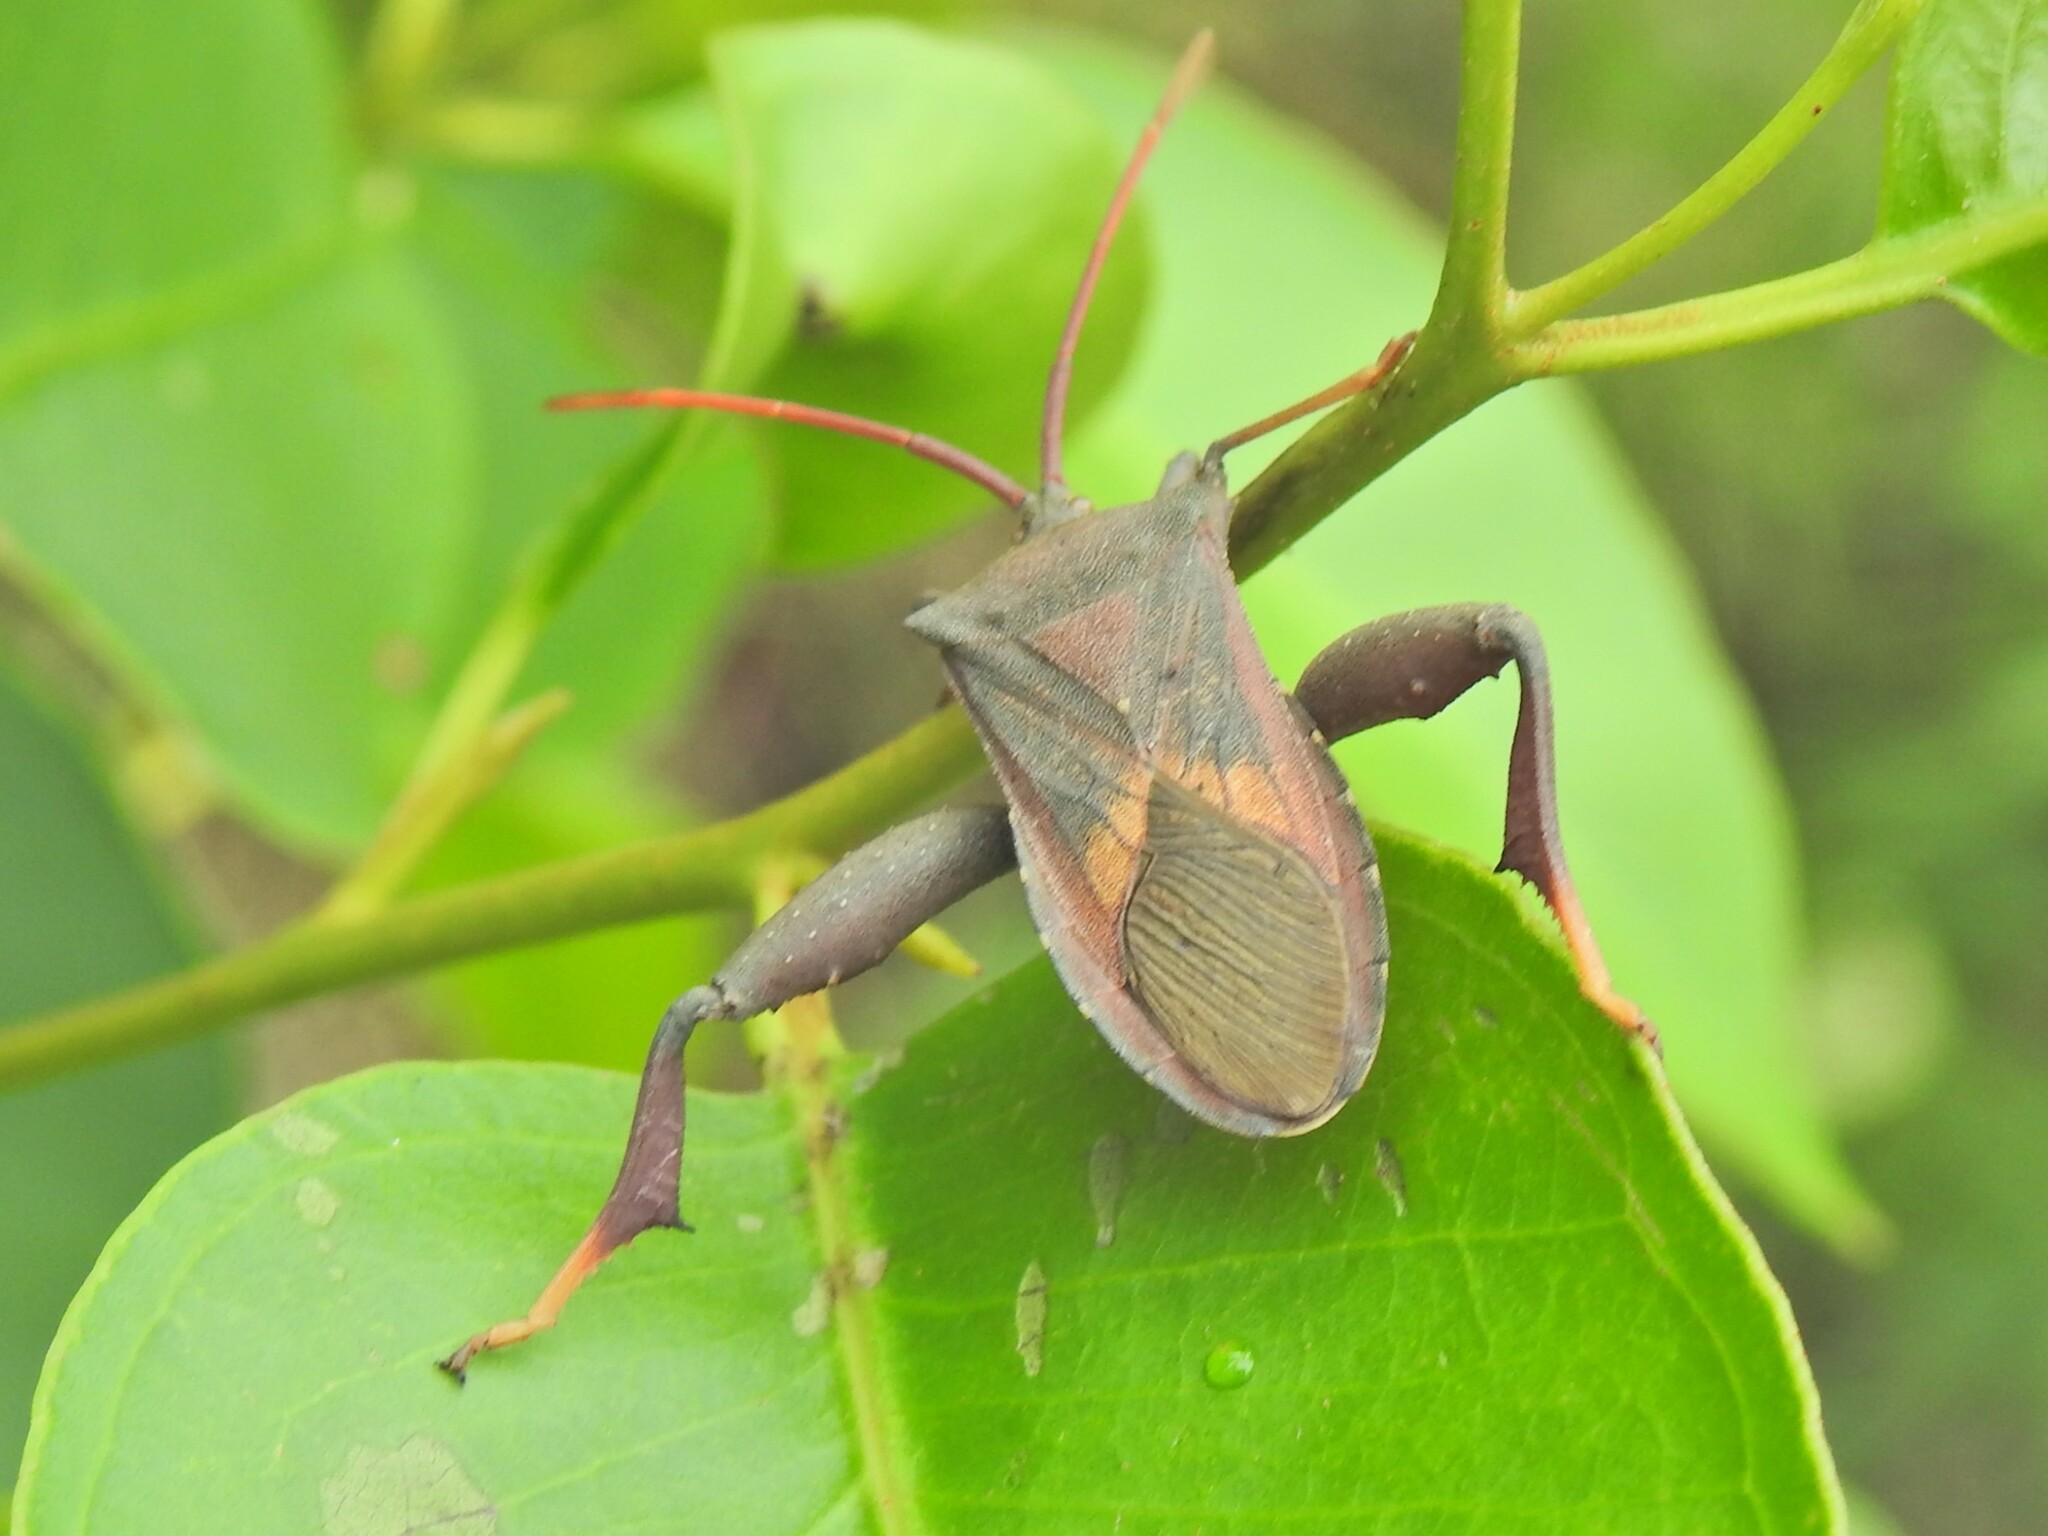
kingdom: Animalia
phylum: Arthropoda
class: Insecta
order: Hemiptera
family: Coreidae
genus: Amorbus
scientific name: Amorbus robustus
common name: Common gum-tree bug
